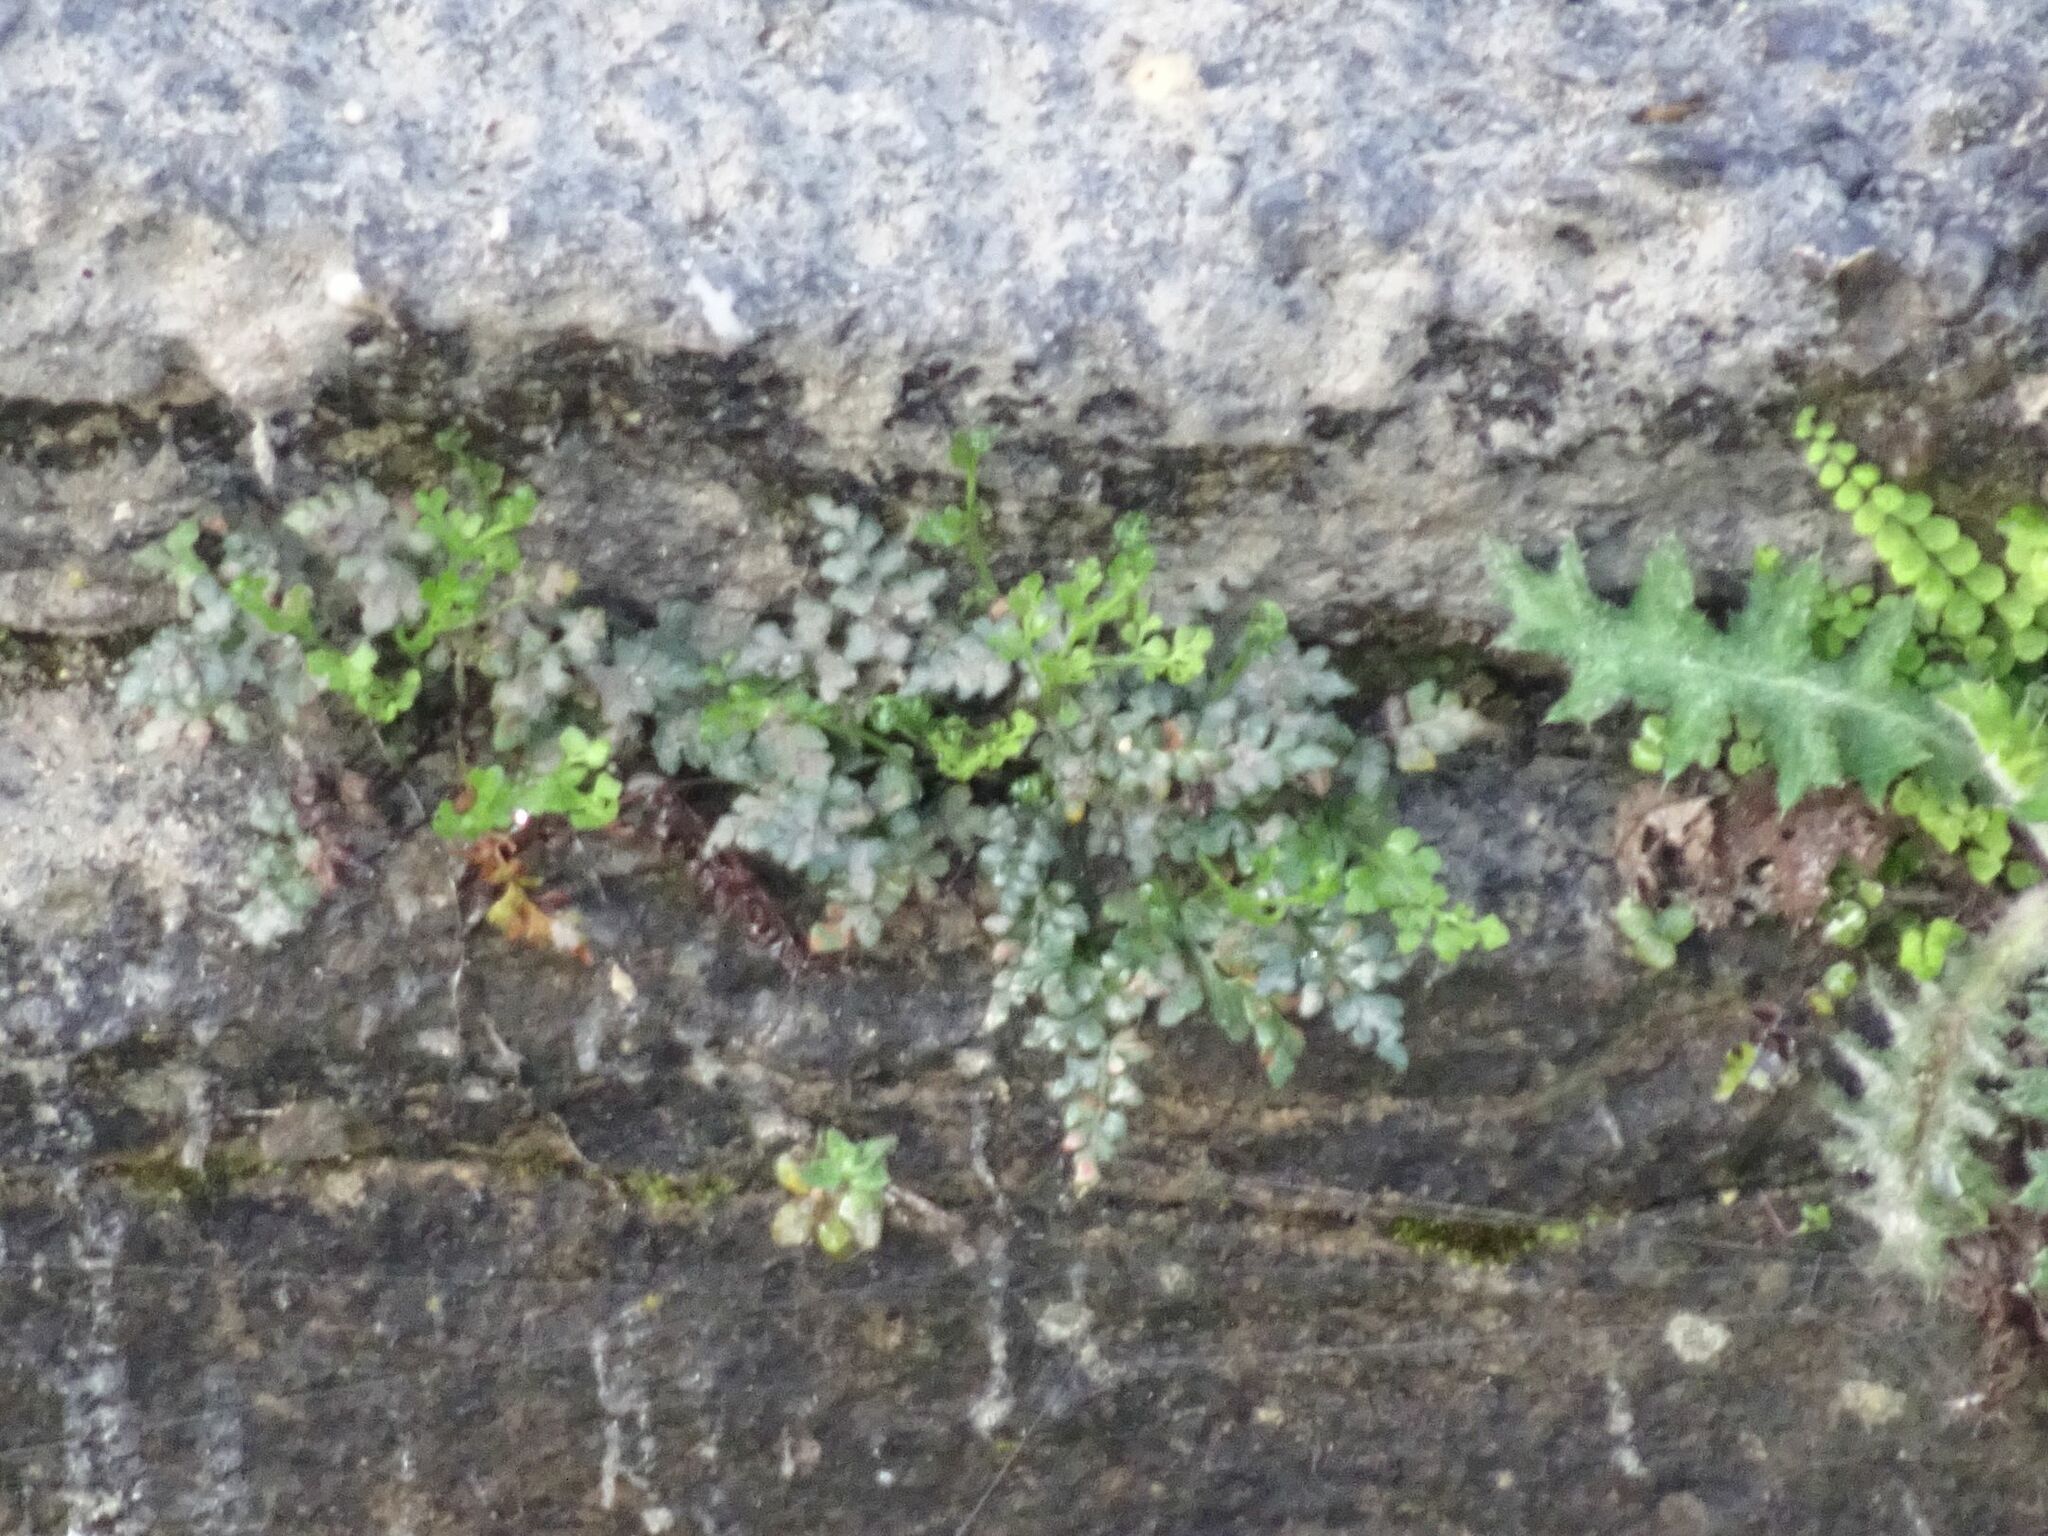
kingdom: Plantae
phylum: Tracheophyta
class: Polypodiopsida
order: Polypodiales
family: Aspleniaceae
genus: Asplenium
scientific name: Asplenium ruta-muraria
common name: Wall-rue
